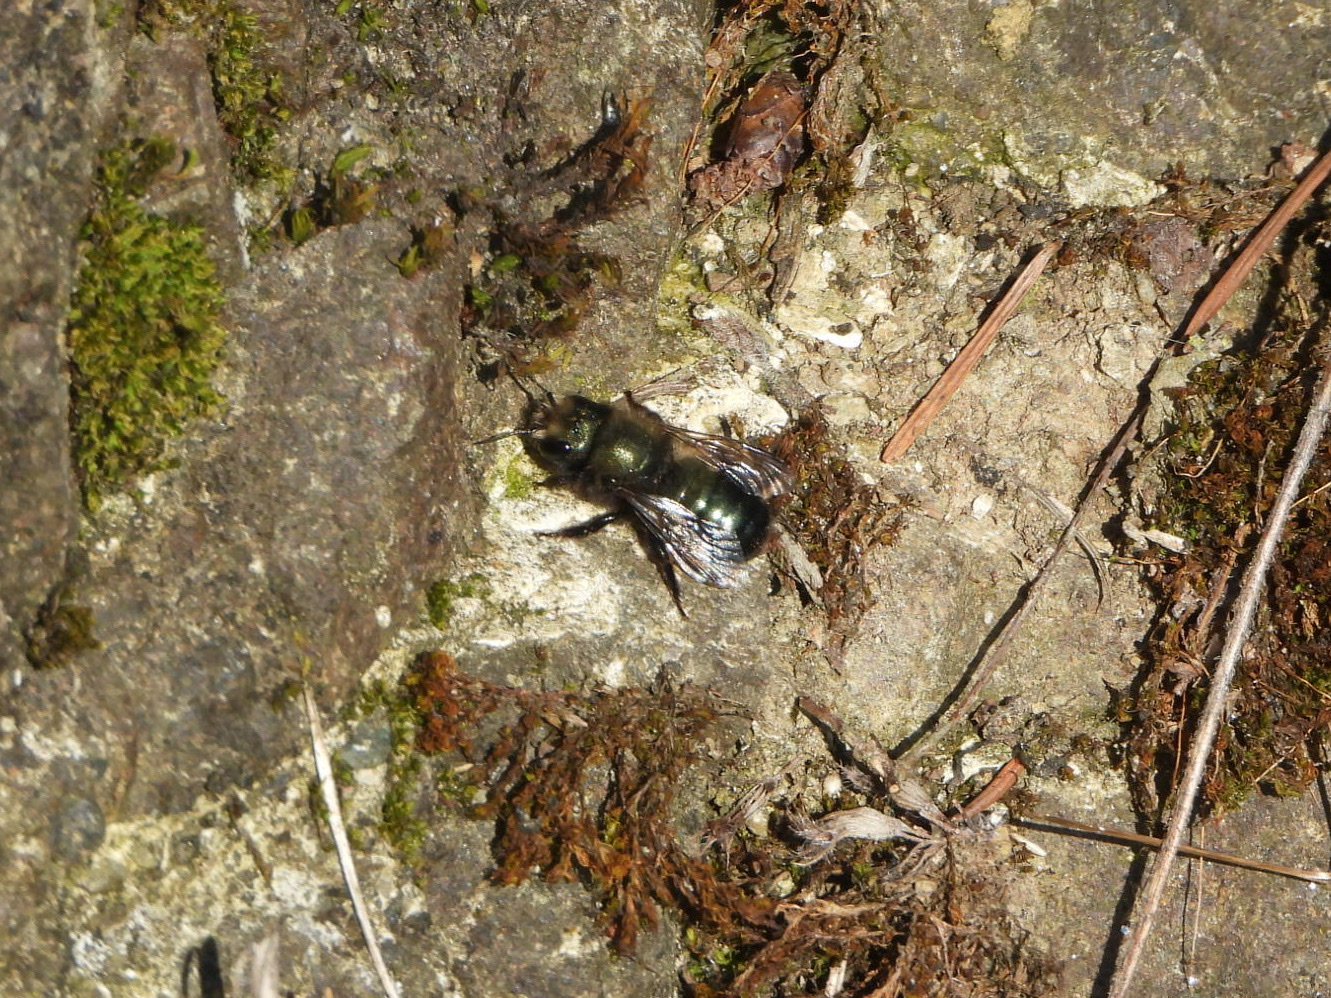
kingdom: Animalia
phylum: Arthropoda
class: Insecta
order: Hymenoptera
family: Megachilidae
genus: Osmia
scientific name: Osmia lignaria
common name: Blue orchard bee
